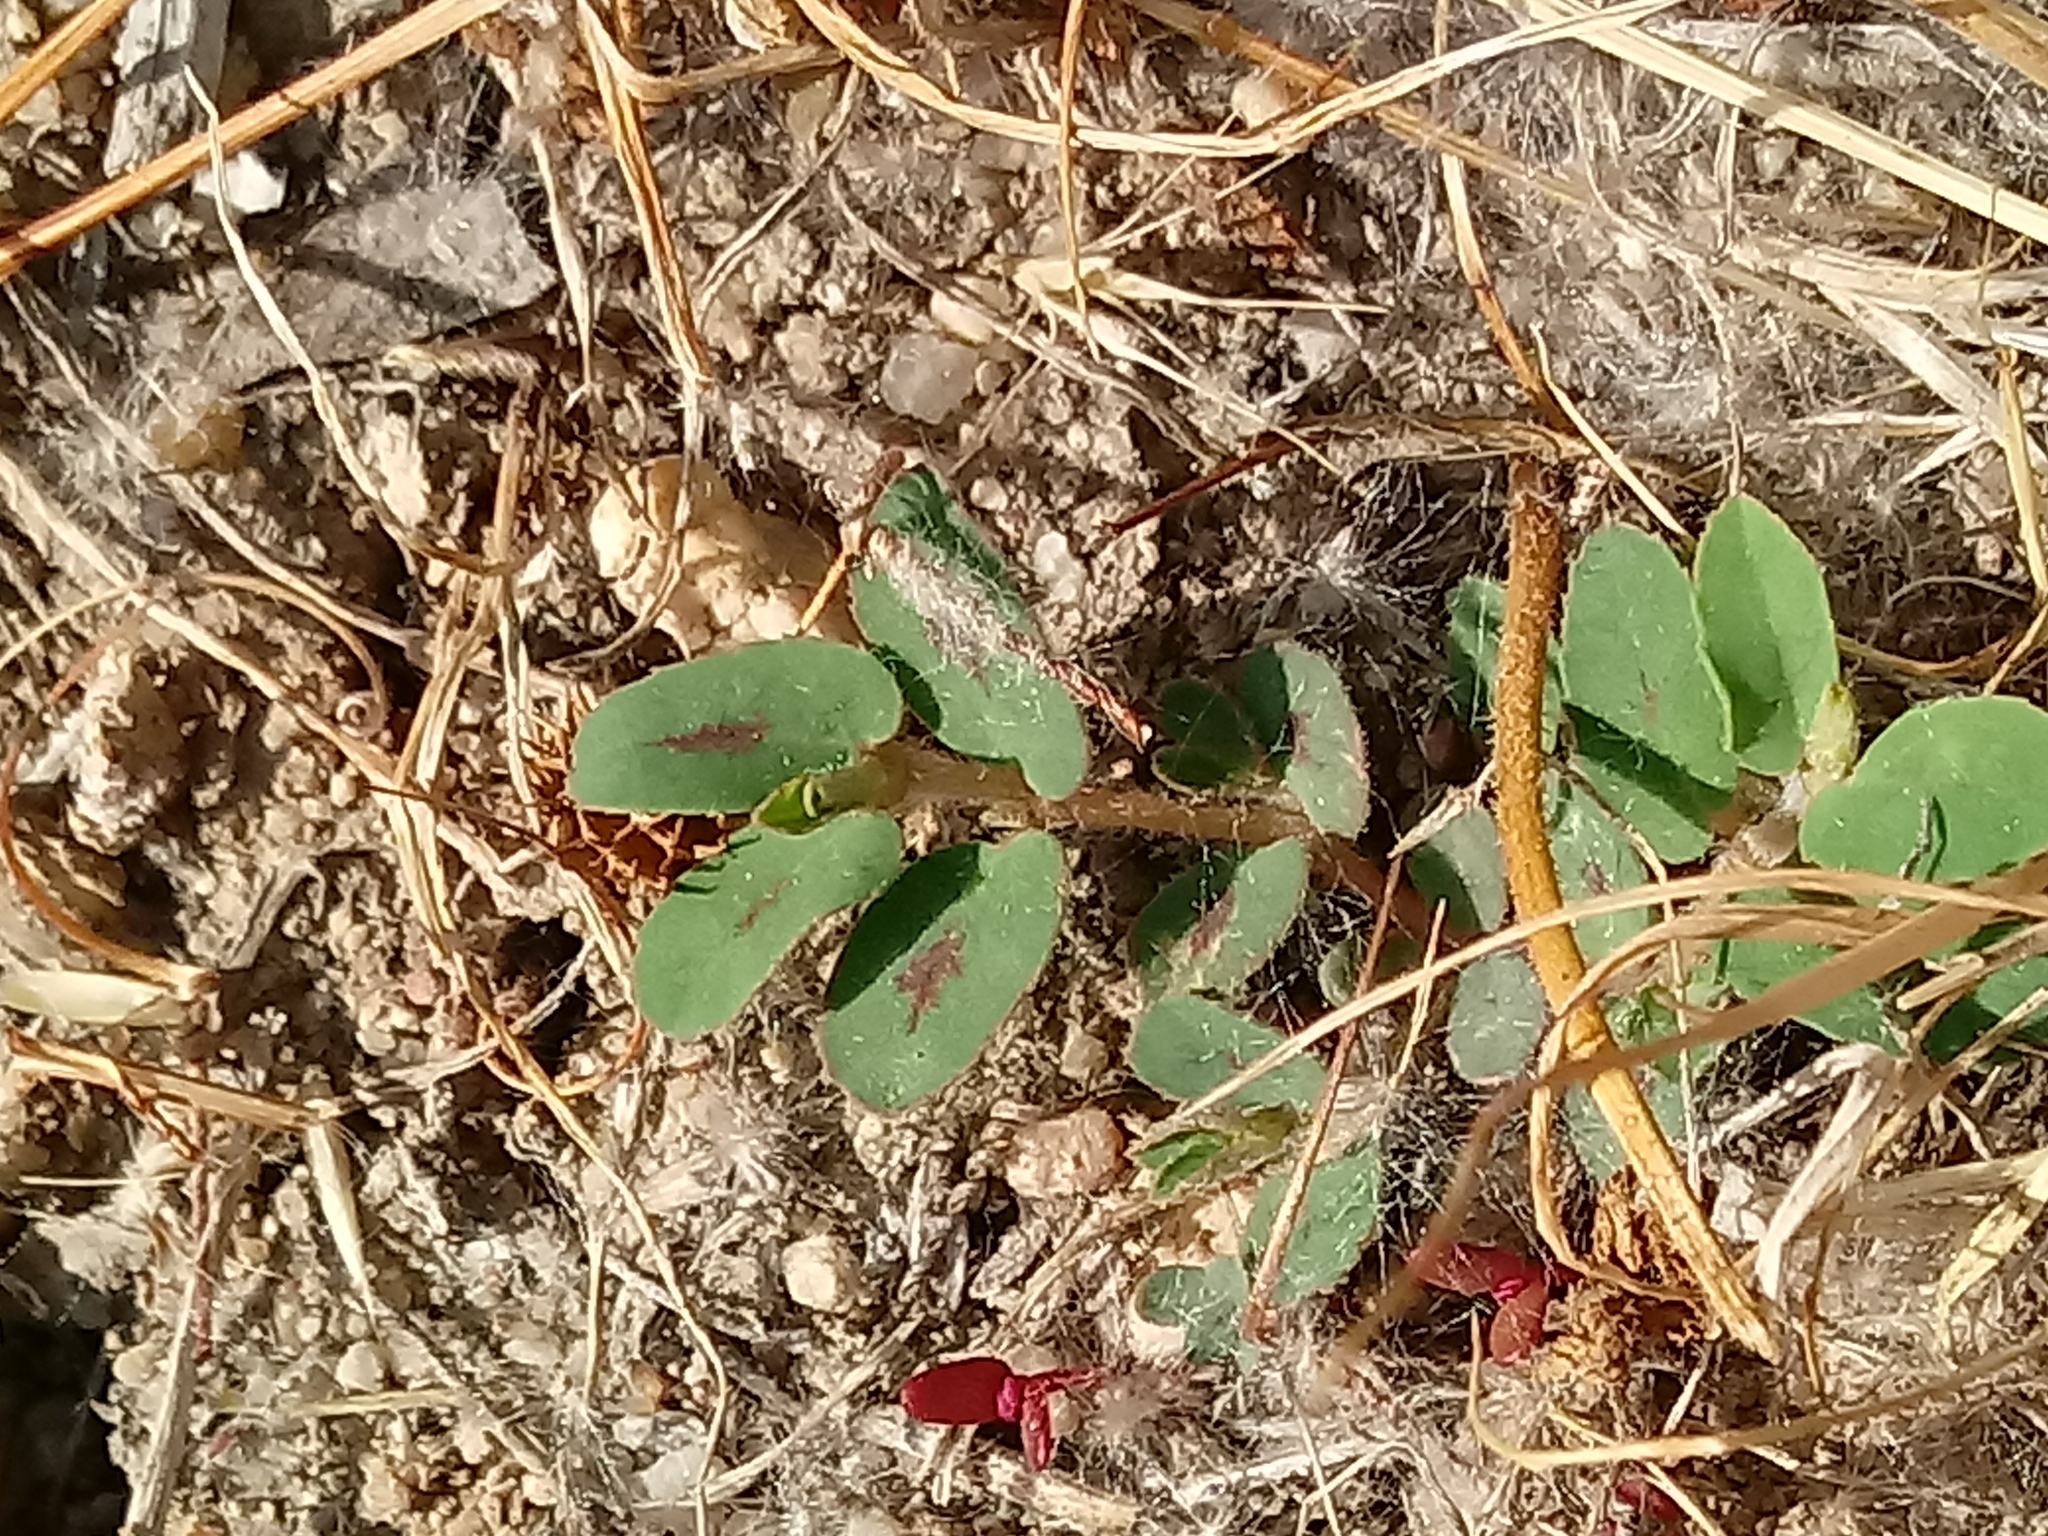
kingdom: Plantae
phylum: Tracheophyta
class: Magnoliopsida
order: Malpighiales
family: Euphorbiaceae
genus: Euphorbia
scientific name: Euphorbia maculata
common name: Spotted spurge
